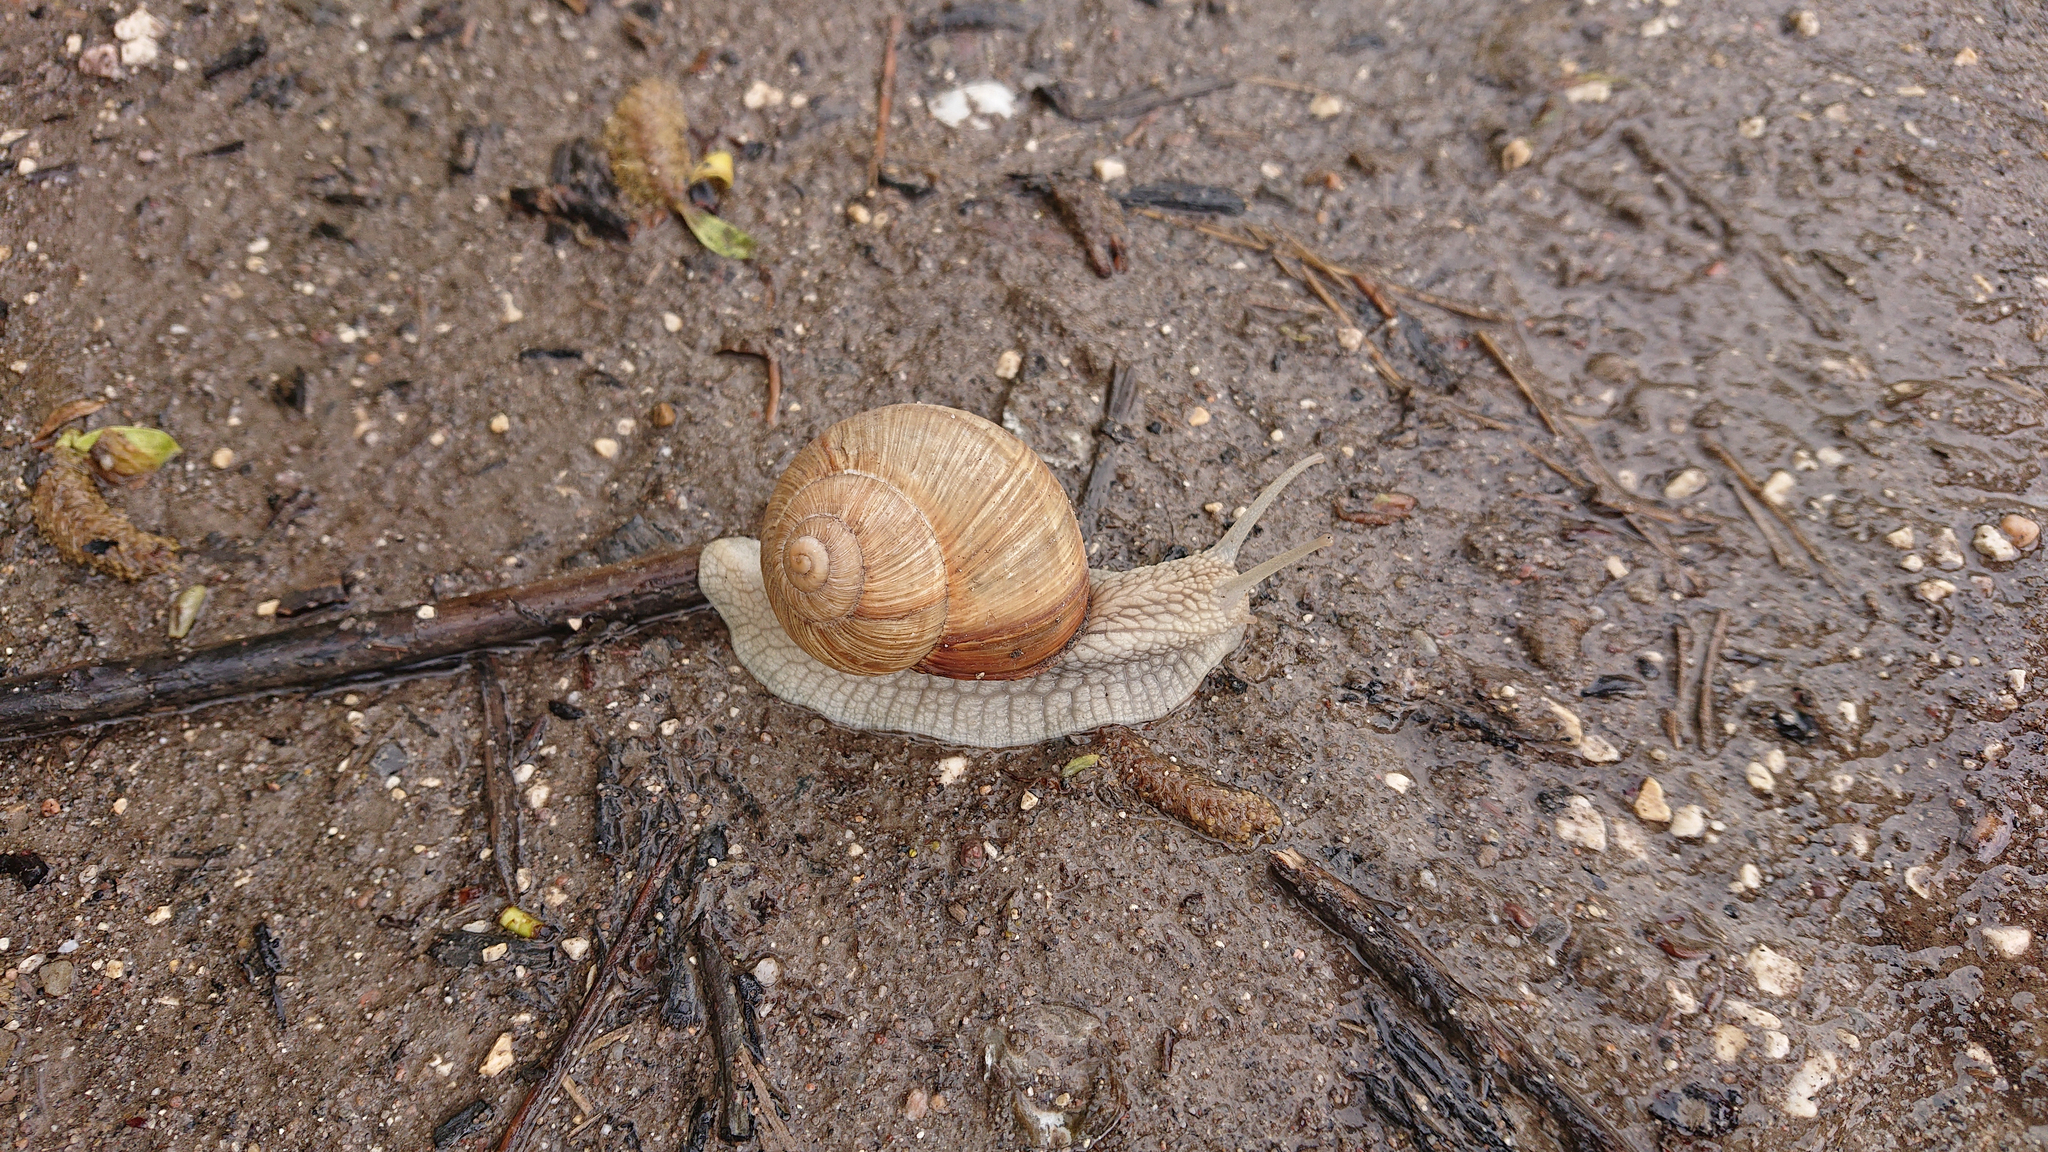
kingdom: Animalia
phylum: Mollusca
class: Gastropoda
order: Stylommatophora
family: Helicidae
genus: Helix
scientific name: Helix pomatia
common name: Roman snail
